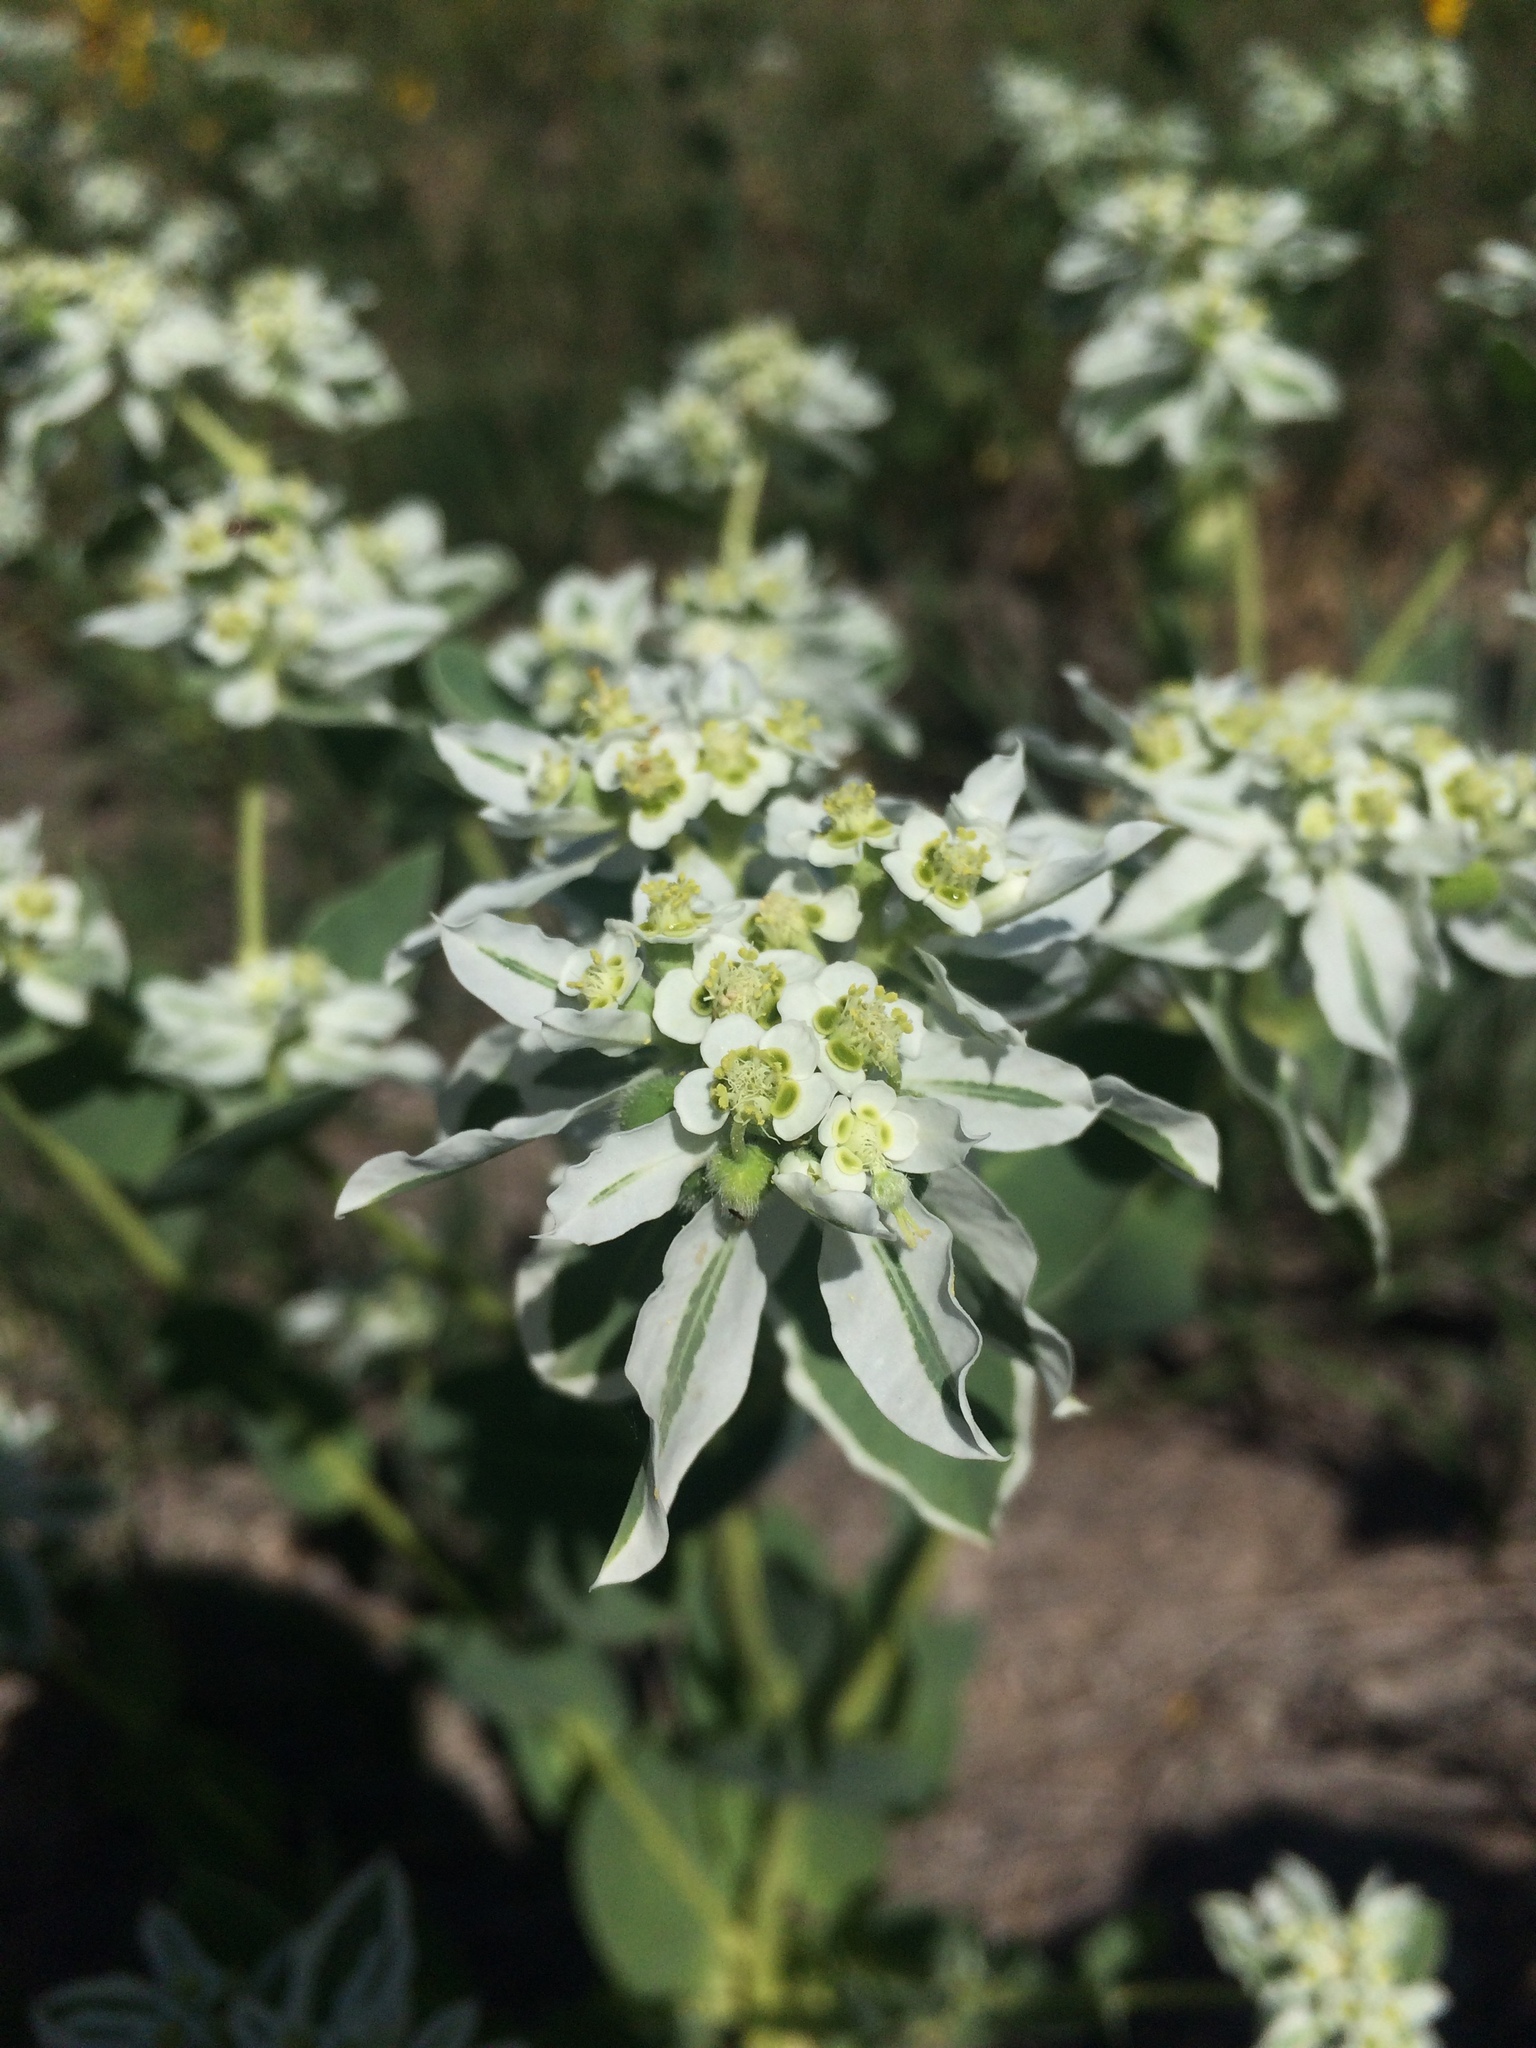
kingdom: Plantae
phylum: Tracheophyta
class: Magnoliopsida
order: Malpighiales
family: Euphorbiaceae
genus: Euphorbia
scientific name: Euphorbia marginata
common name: Ghostweed
